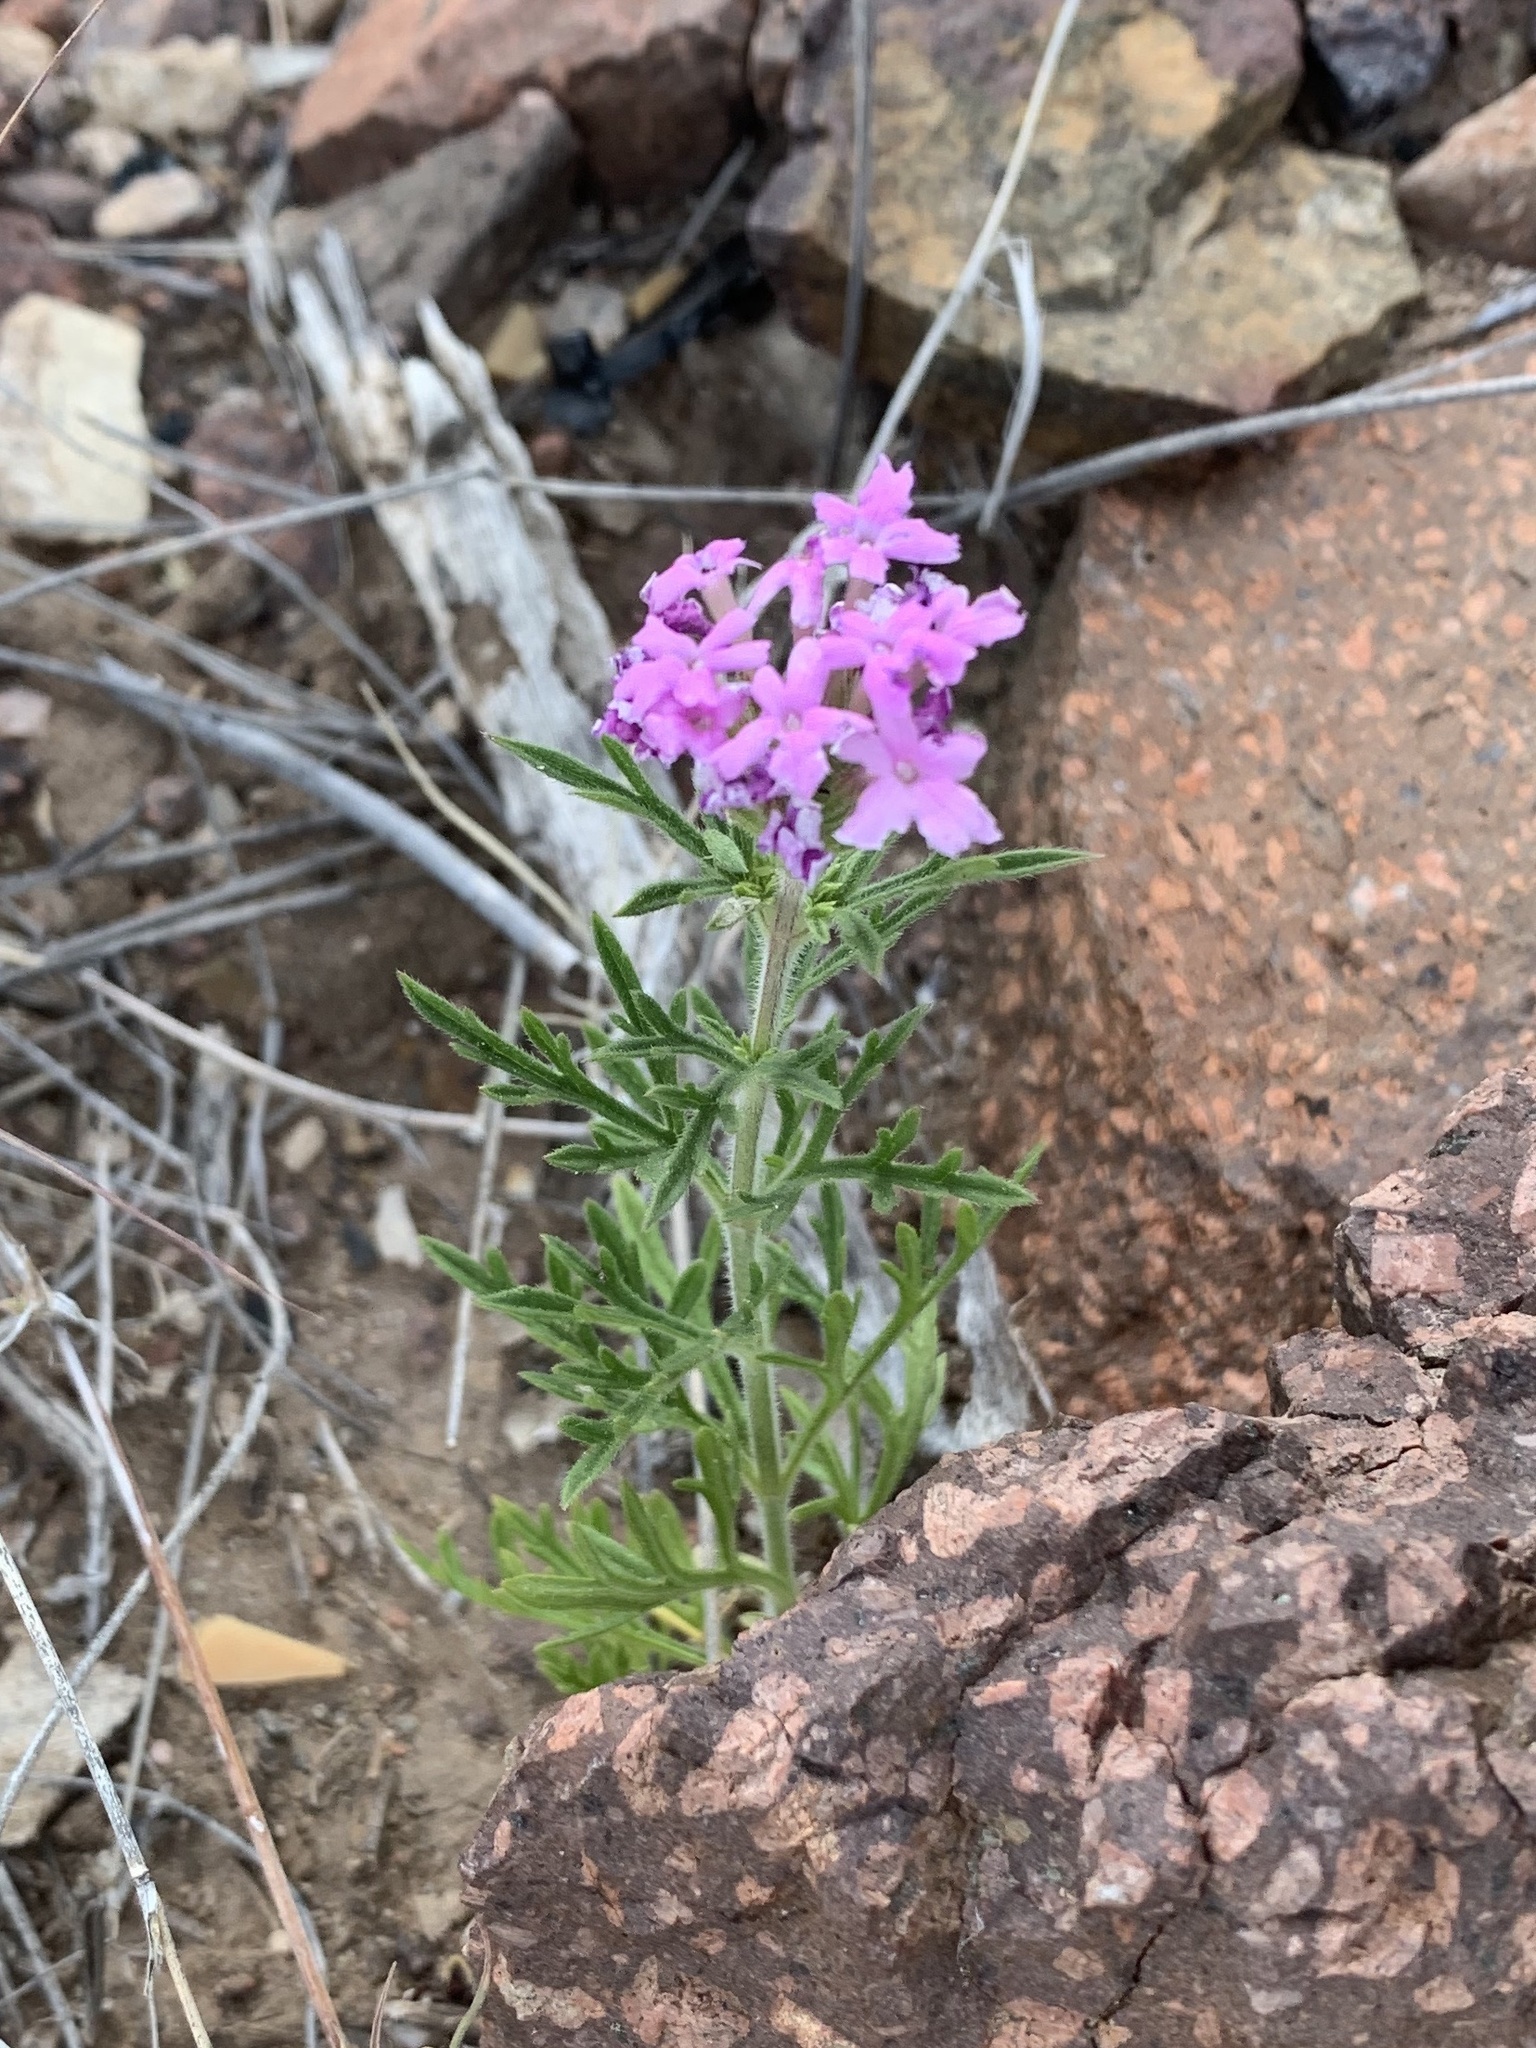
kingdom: Plantae
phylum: Tracheophyta
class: Magnoliopsida
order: Lamiales
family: Verbenaceae
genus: Verbena
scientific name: Verbena bipinnatifida
